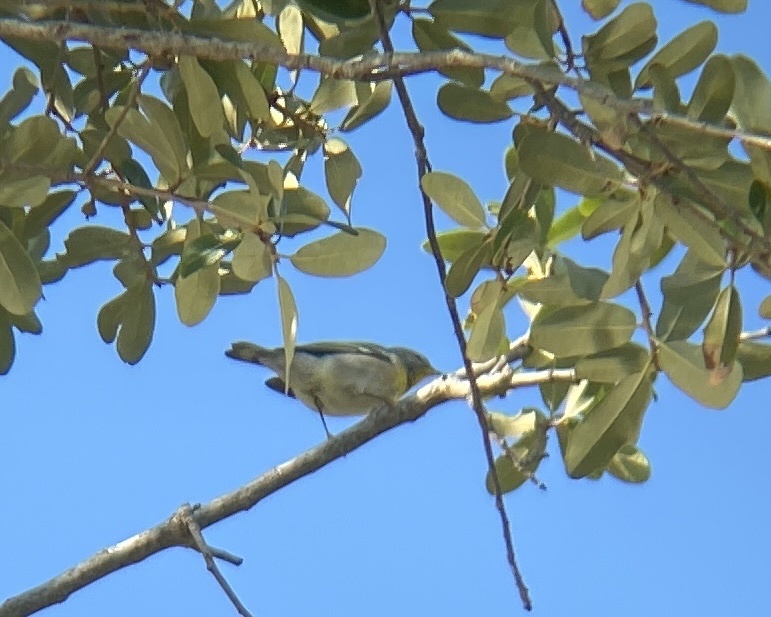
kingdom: Animalia
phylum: Chordata
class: Aves
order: Passeriformes
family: Parulidae
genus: Setophaga
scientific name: Setophaga americana
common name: Northern parula
